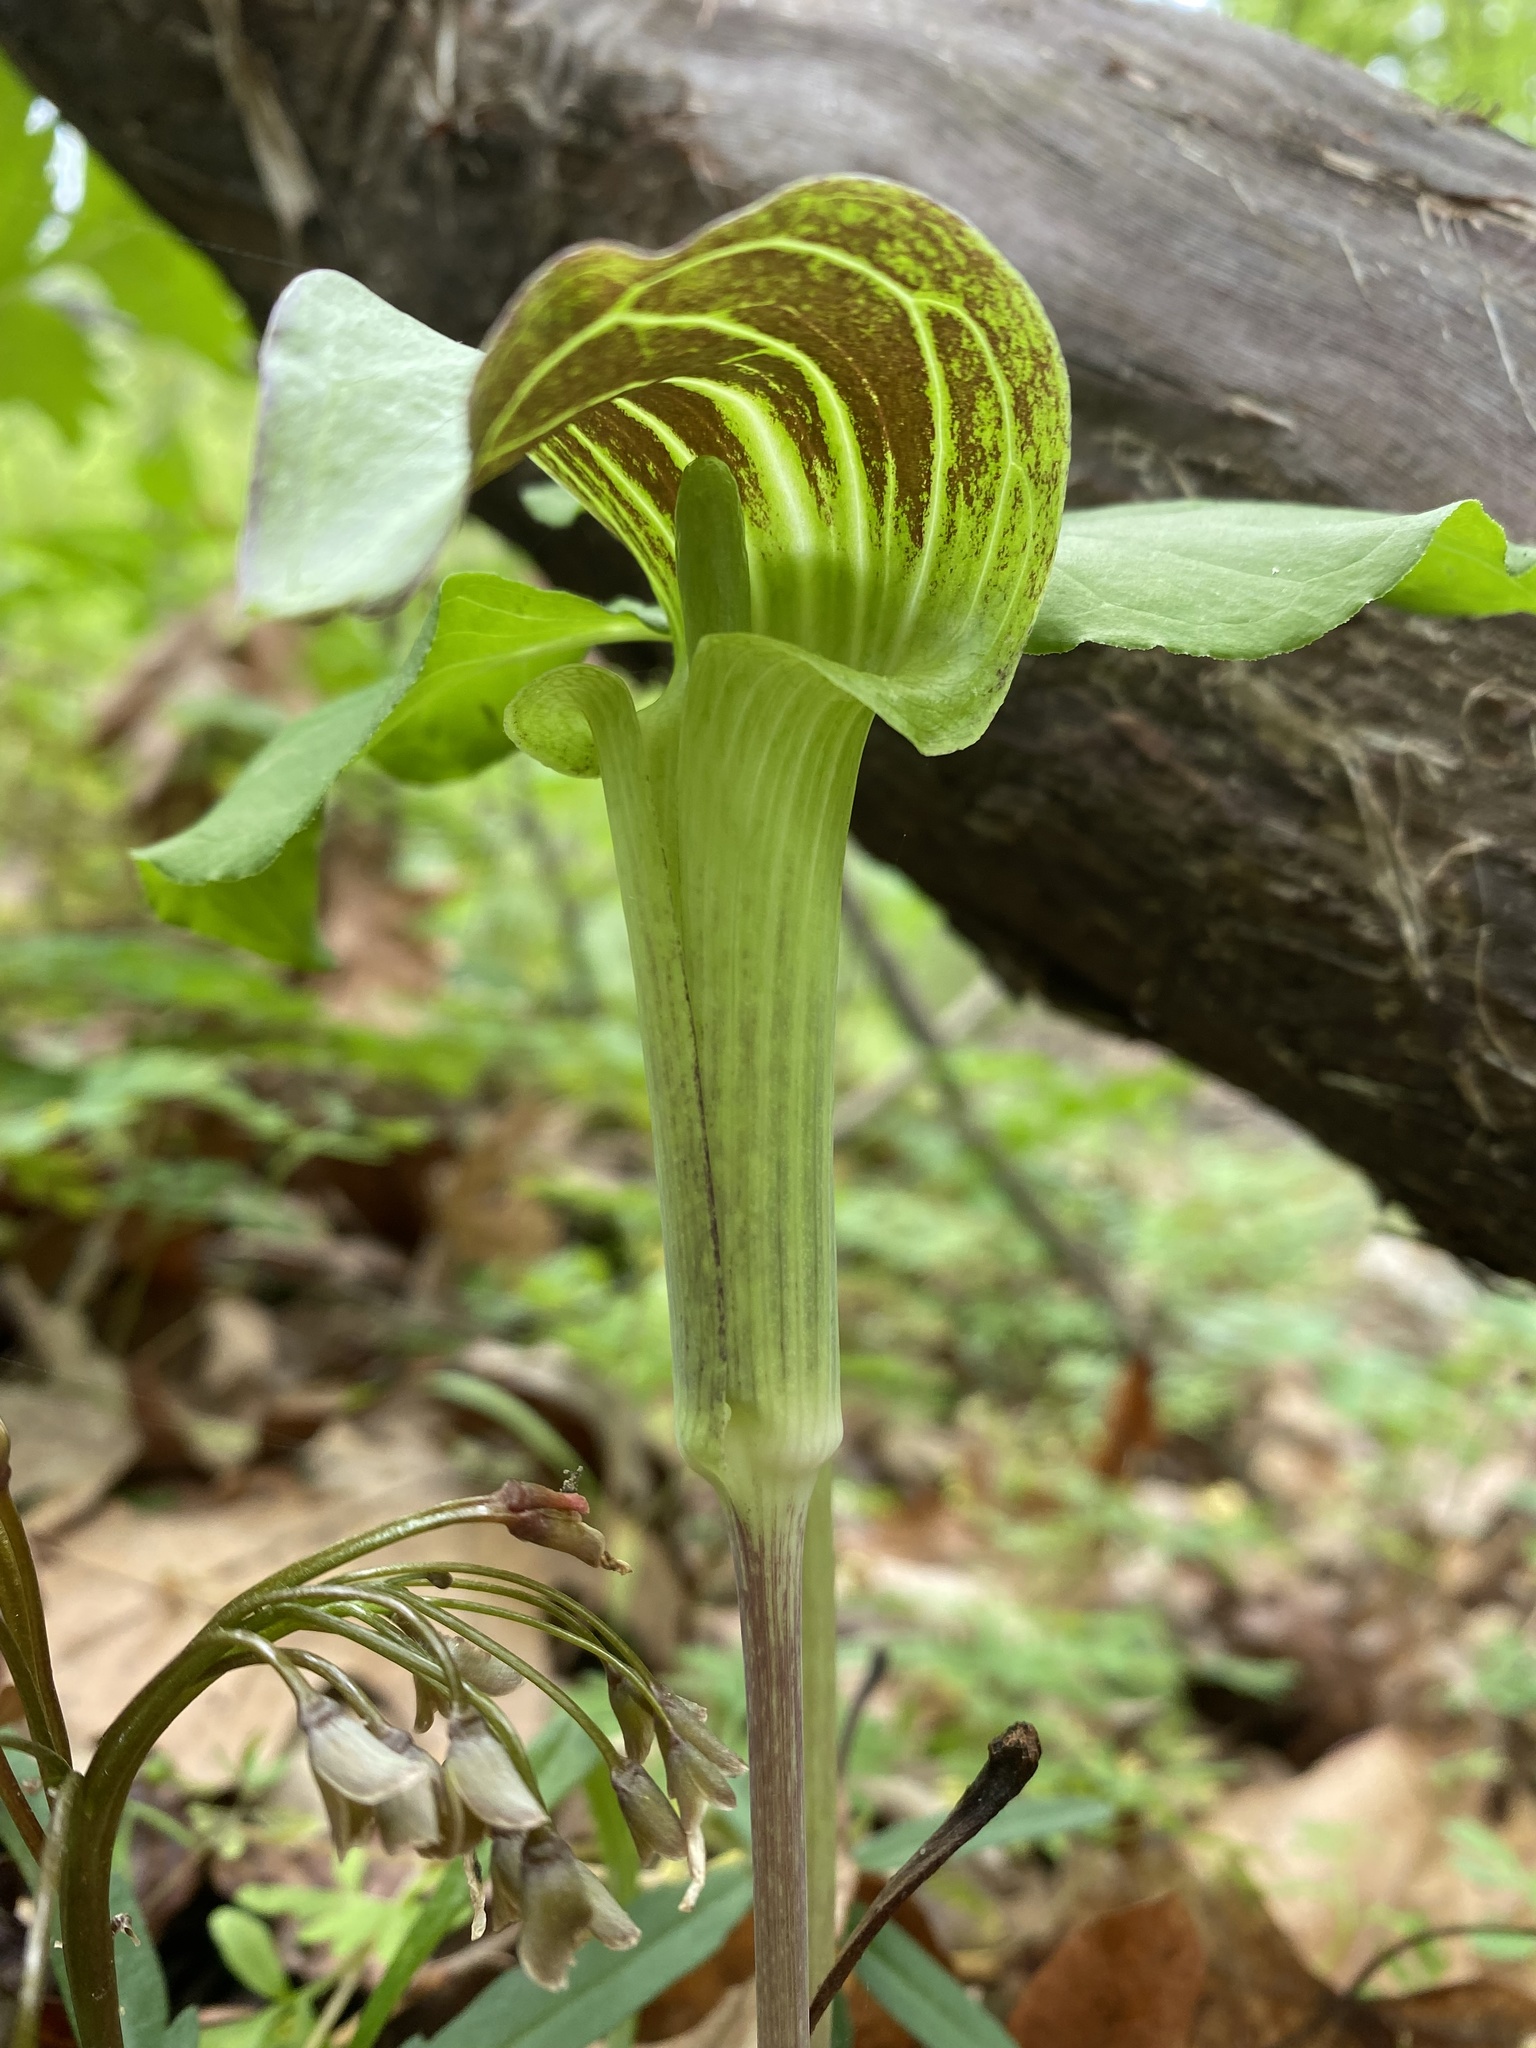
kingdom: Plantae
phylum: Tracheophyta
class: Liliopsida
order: Alismatales
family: Araceae
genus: Arisaema
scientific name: Arisaema triphyllum
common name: Jack-in-the-pulpit
